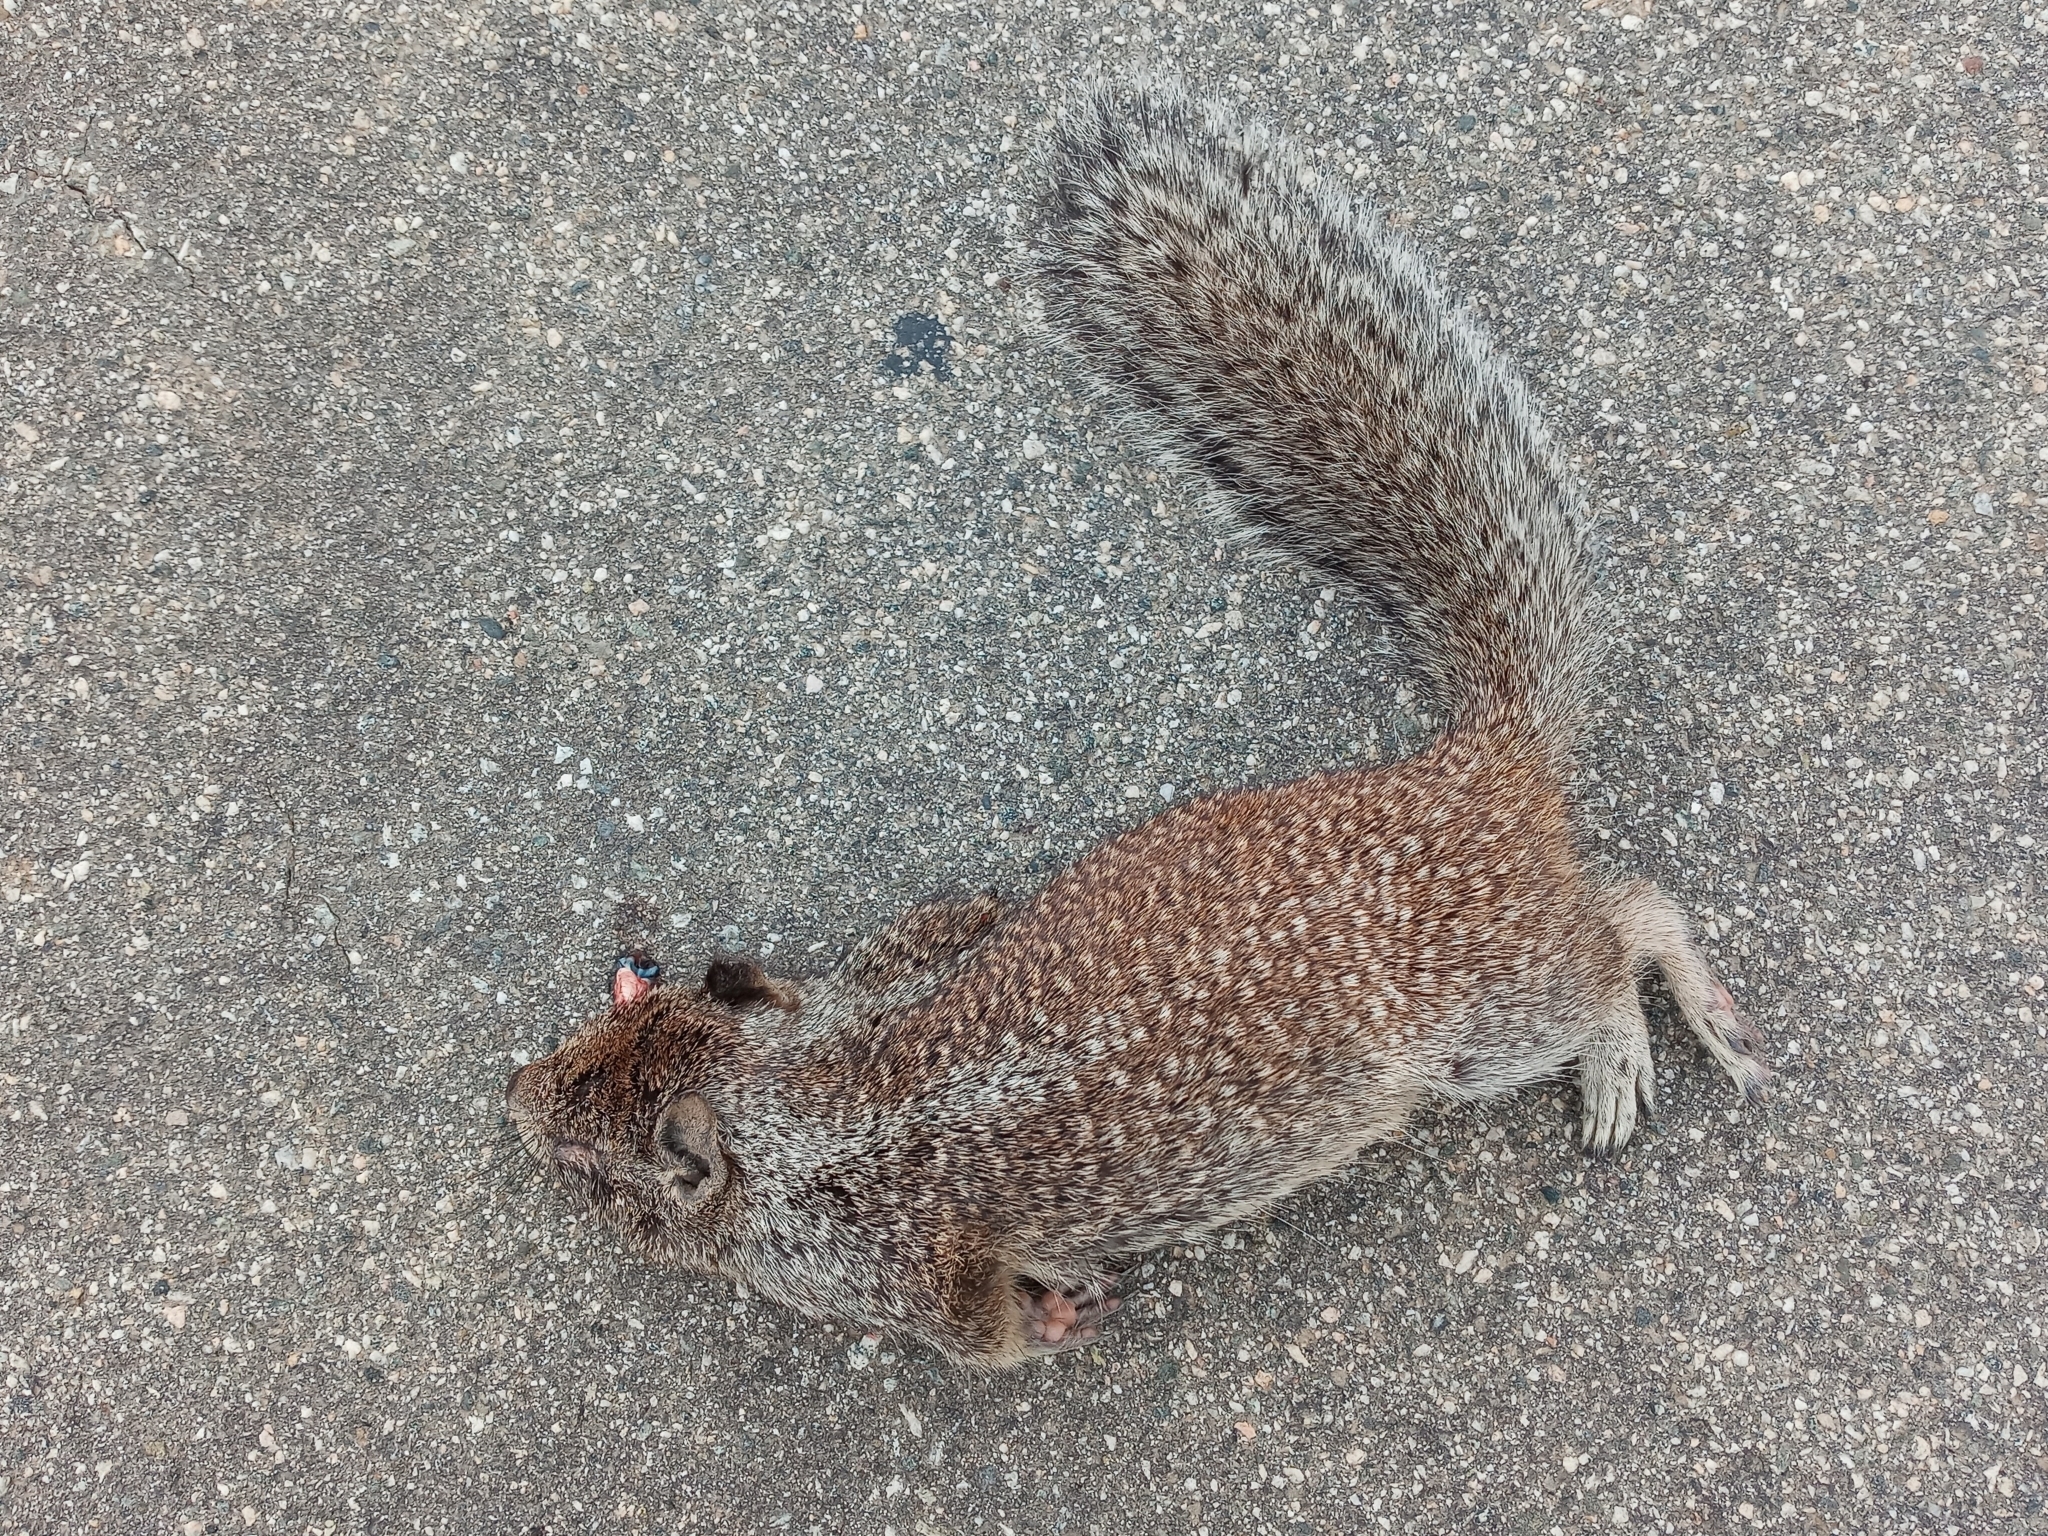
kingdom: Animalia
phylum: Chordata
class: Mammalia
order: Rodentia
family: Sciuridae
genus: Otospermophilus
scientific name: Otospermophilus beecheyi
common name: California ground squirrel
